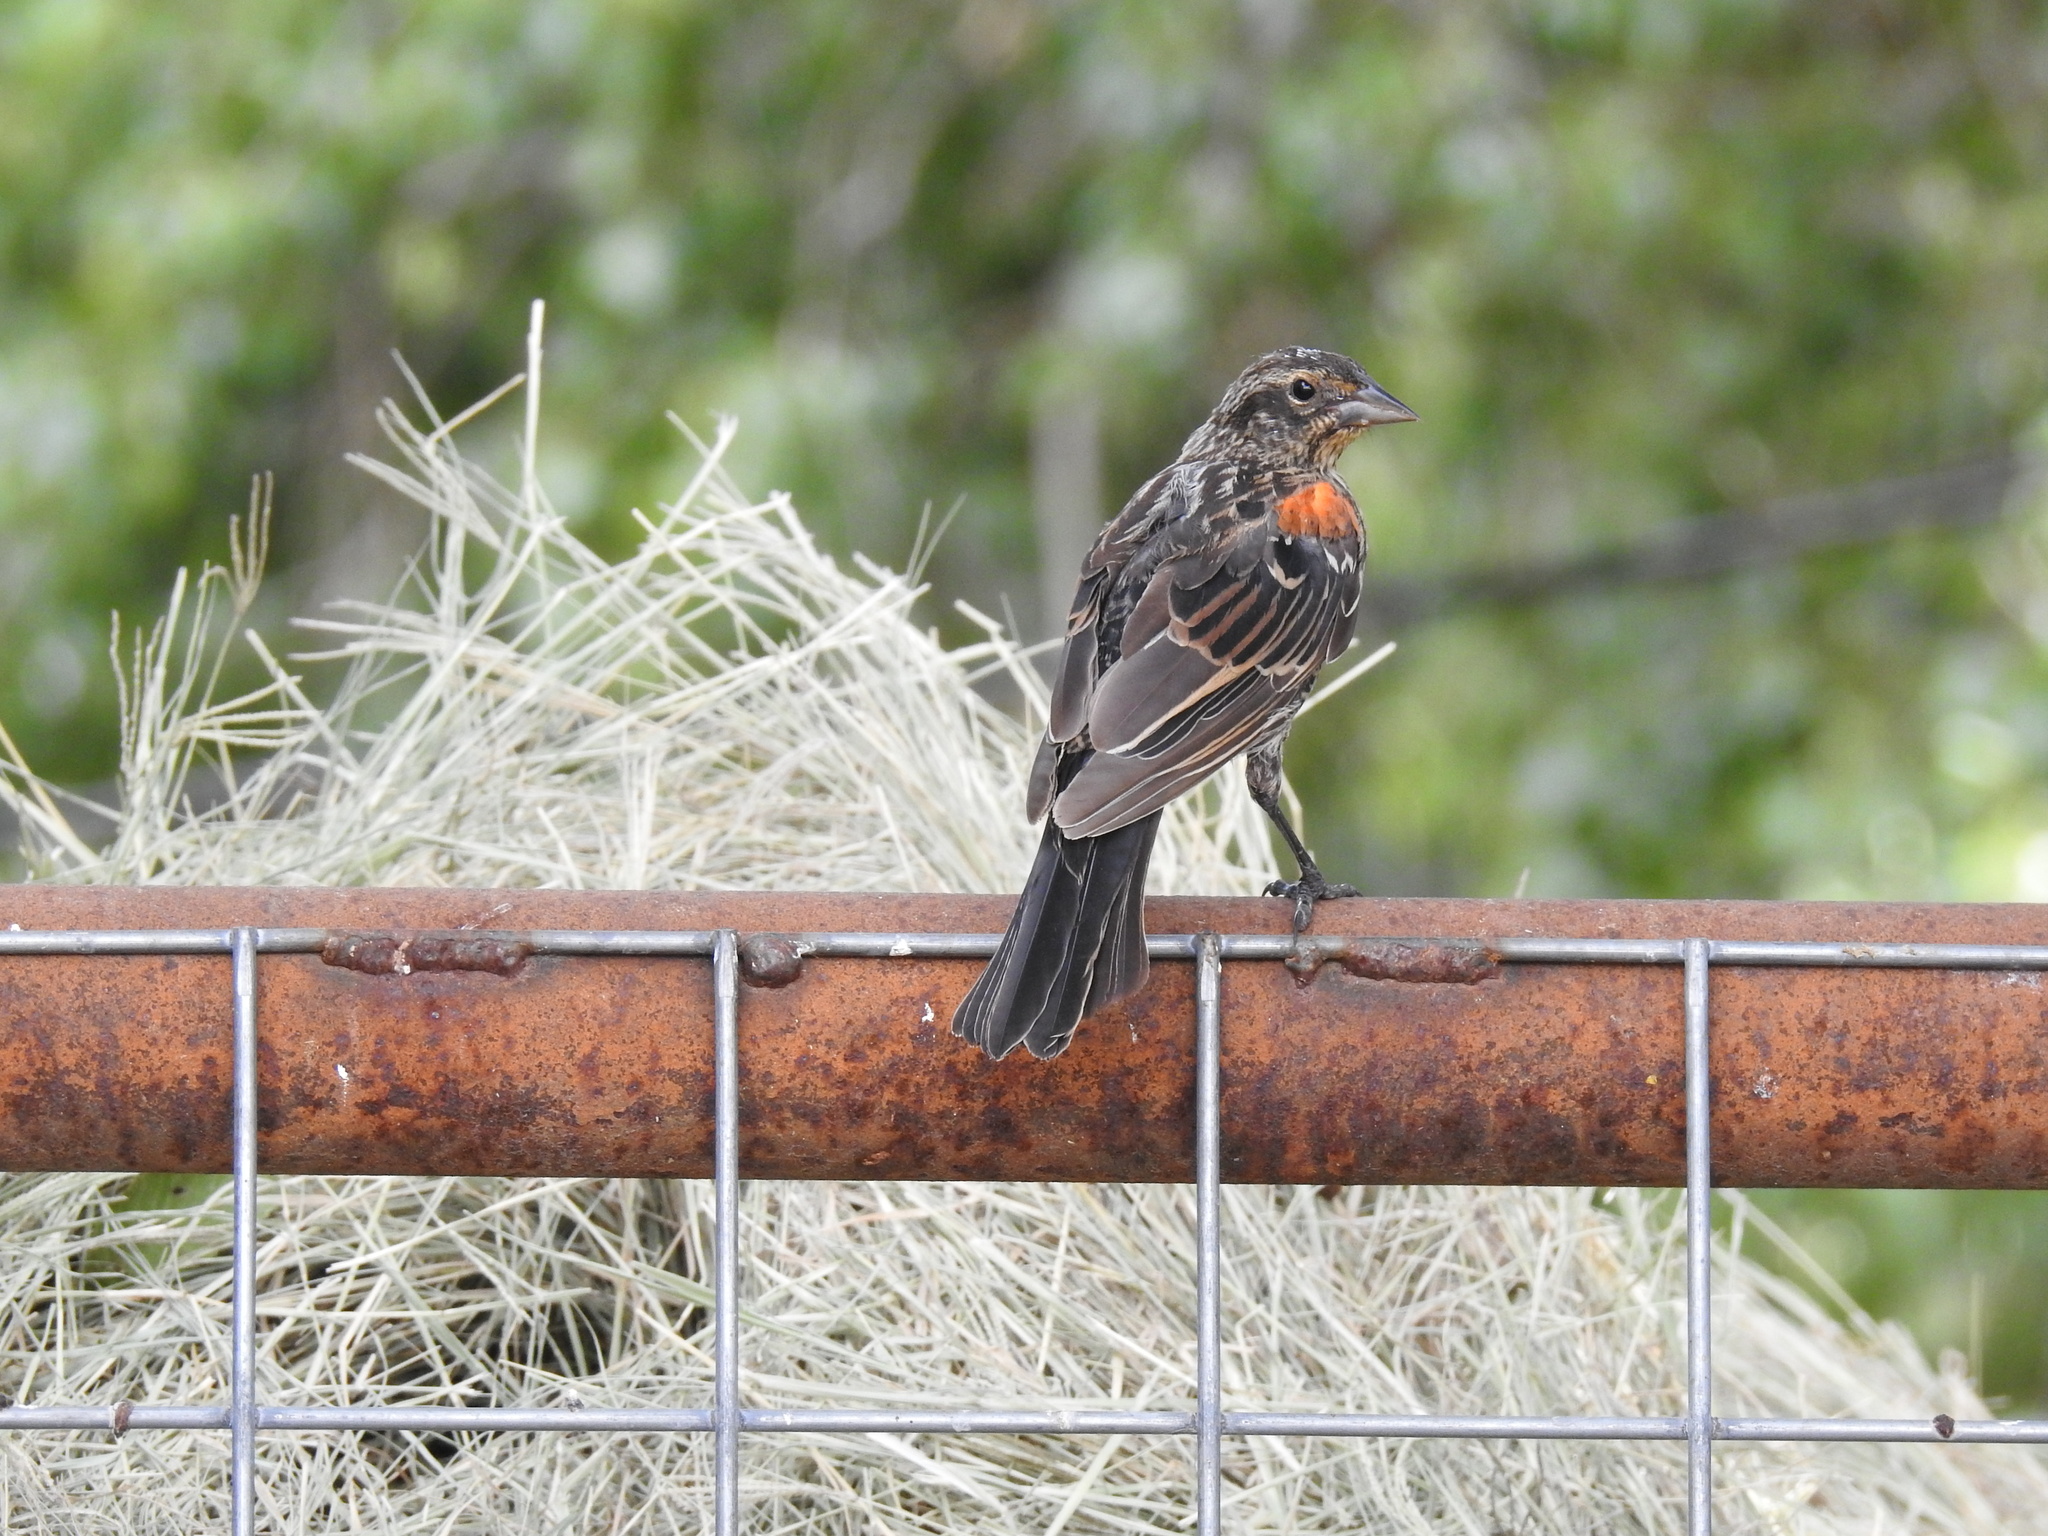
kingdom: Animalia
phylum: Chordata
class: Aves
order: Passeriformes
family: Icteridae
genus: Agelaius
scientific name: Agelaius phoeniceus
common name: Red-winged blackbird
